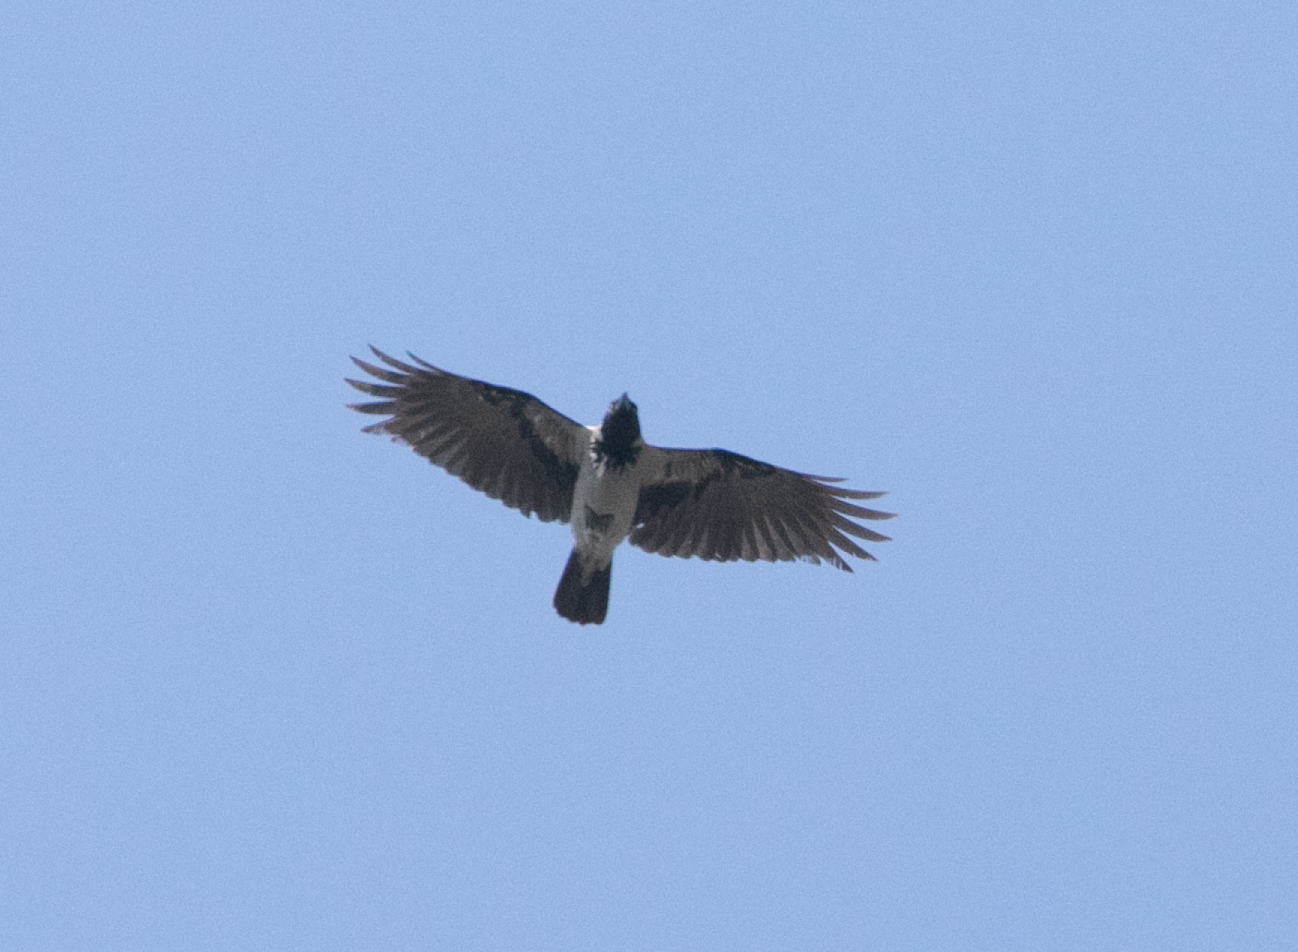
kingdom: Animalia
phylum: Chordata
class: Aves
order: Passeriformes
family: Corvidae
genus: Corvus
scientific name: Corvus cornix
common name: Hooded crow
